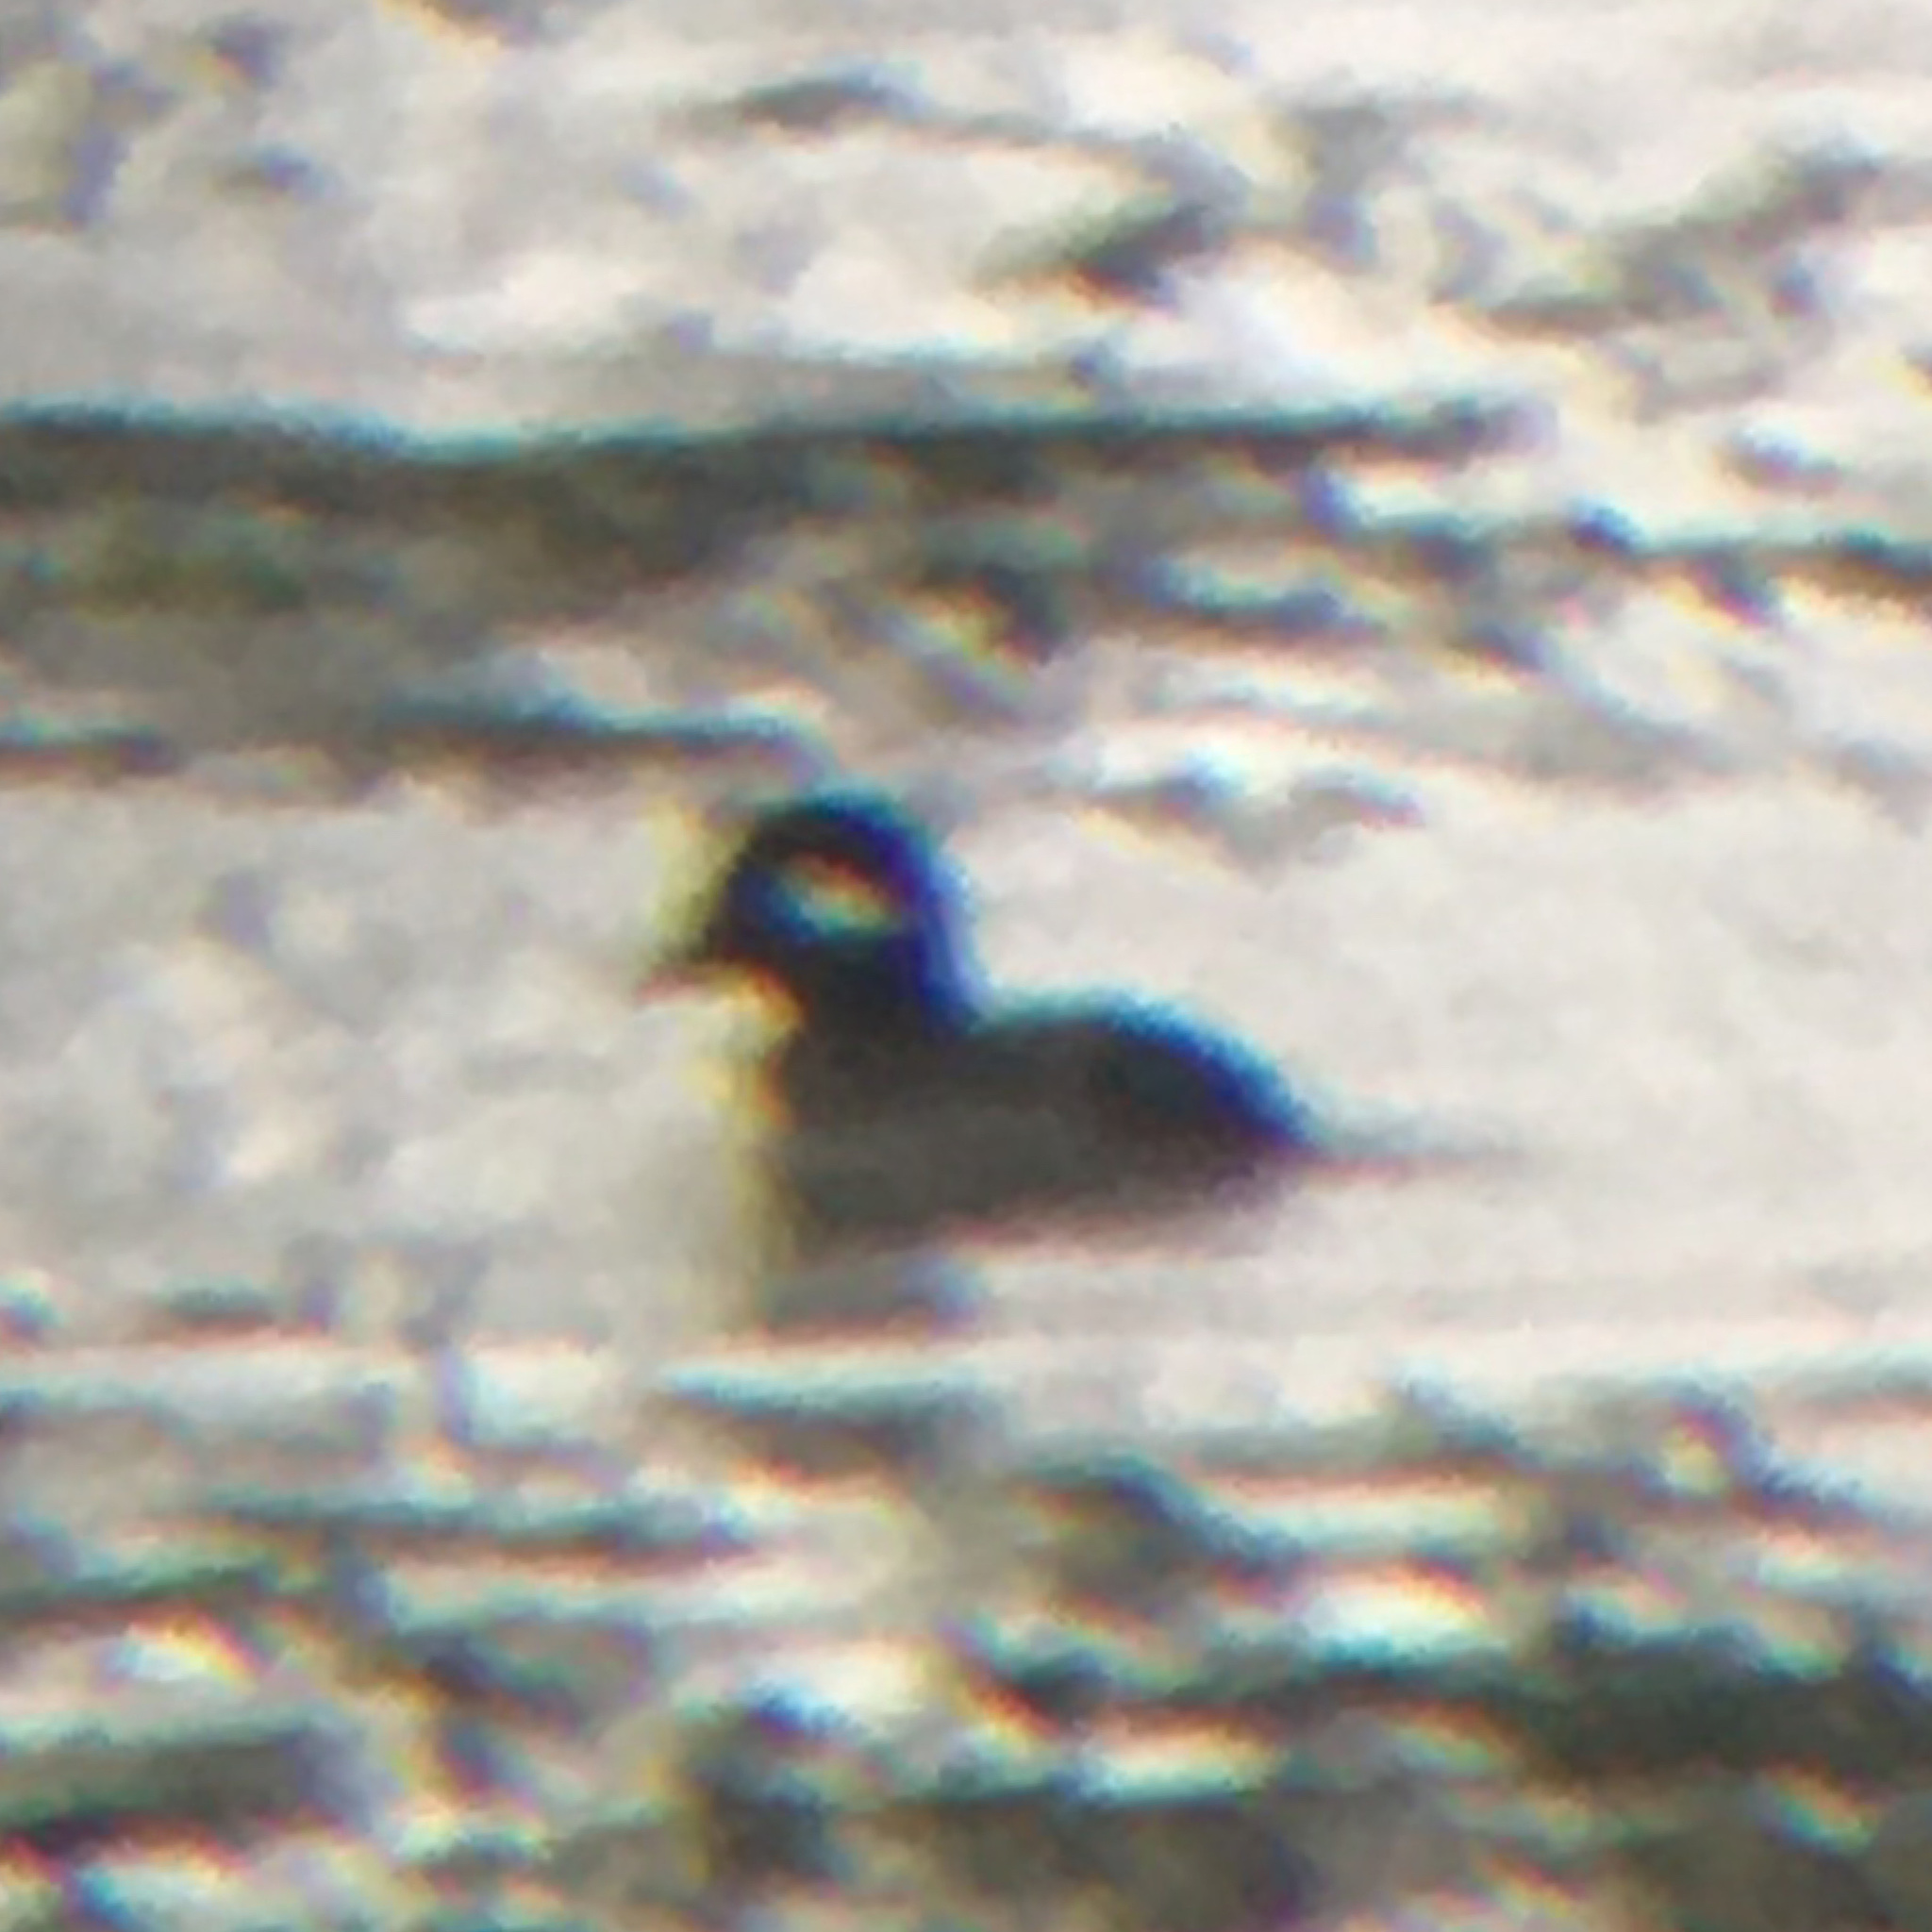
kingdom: Animalia
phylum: Chordata
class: Aves
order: Anseriformes
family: Anatidae
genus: Bucephala
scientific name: Bucephala albeola
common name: Bufflehead
